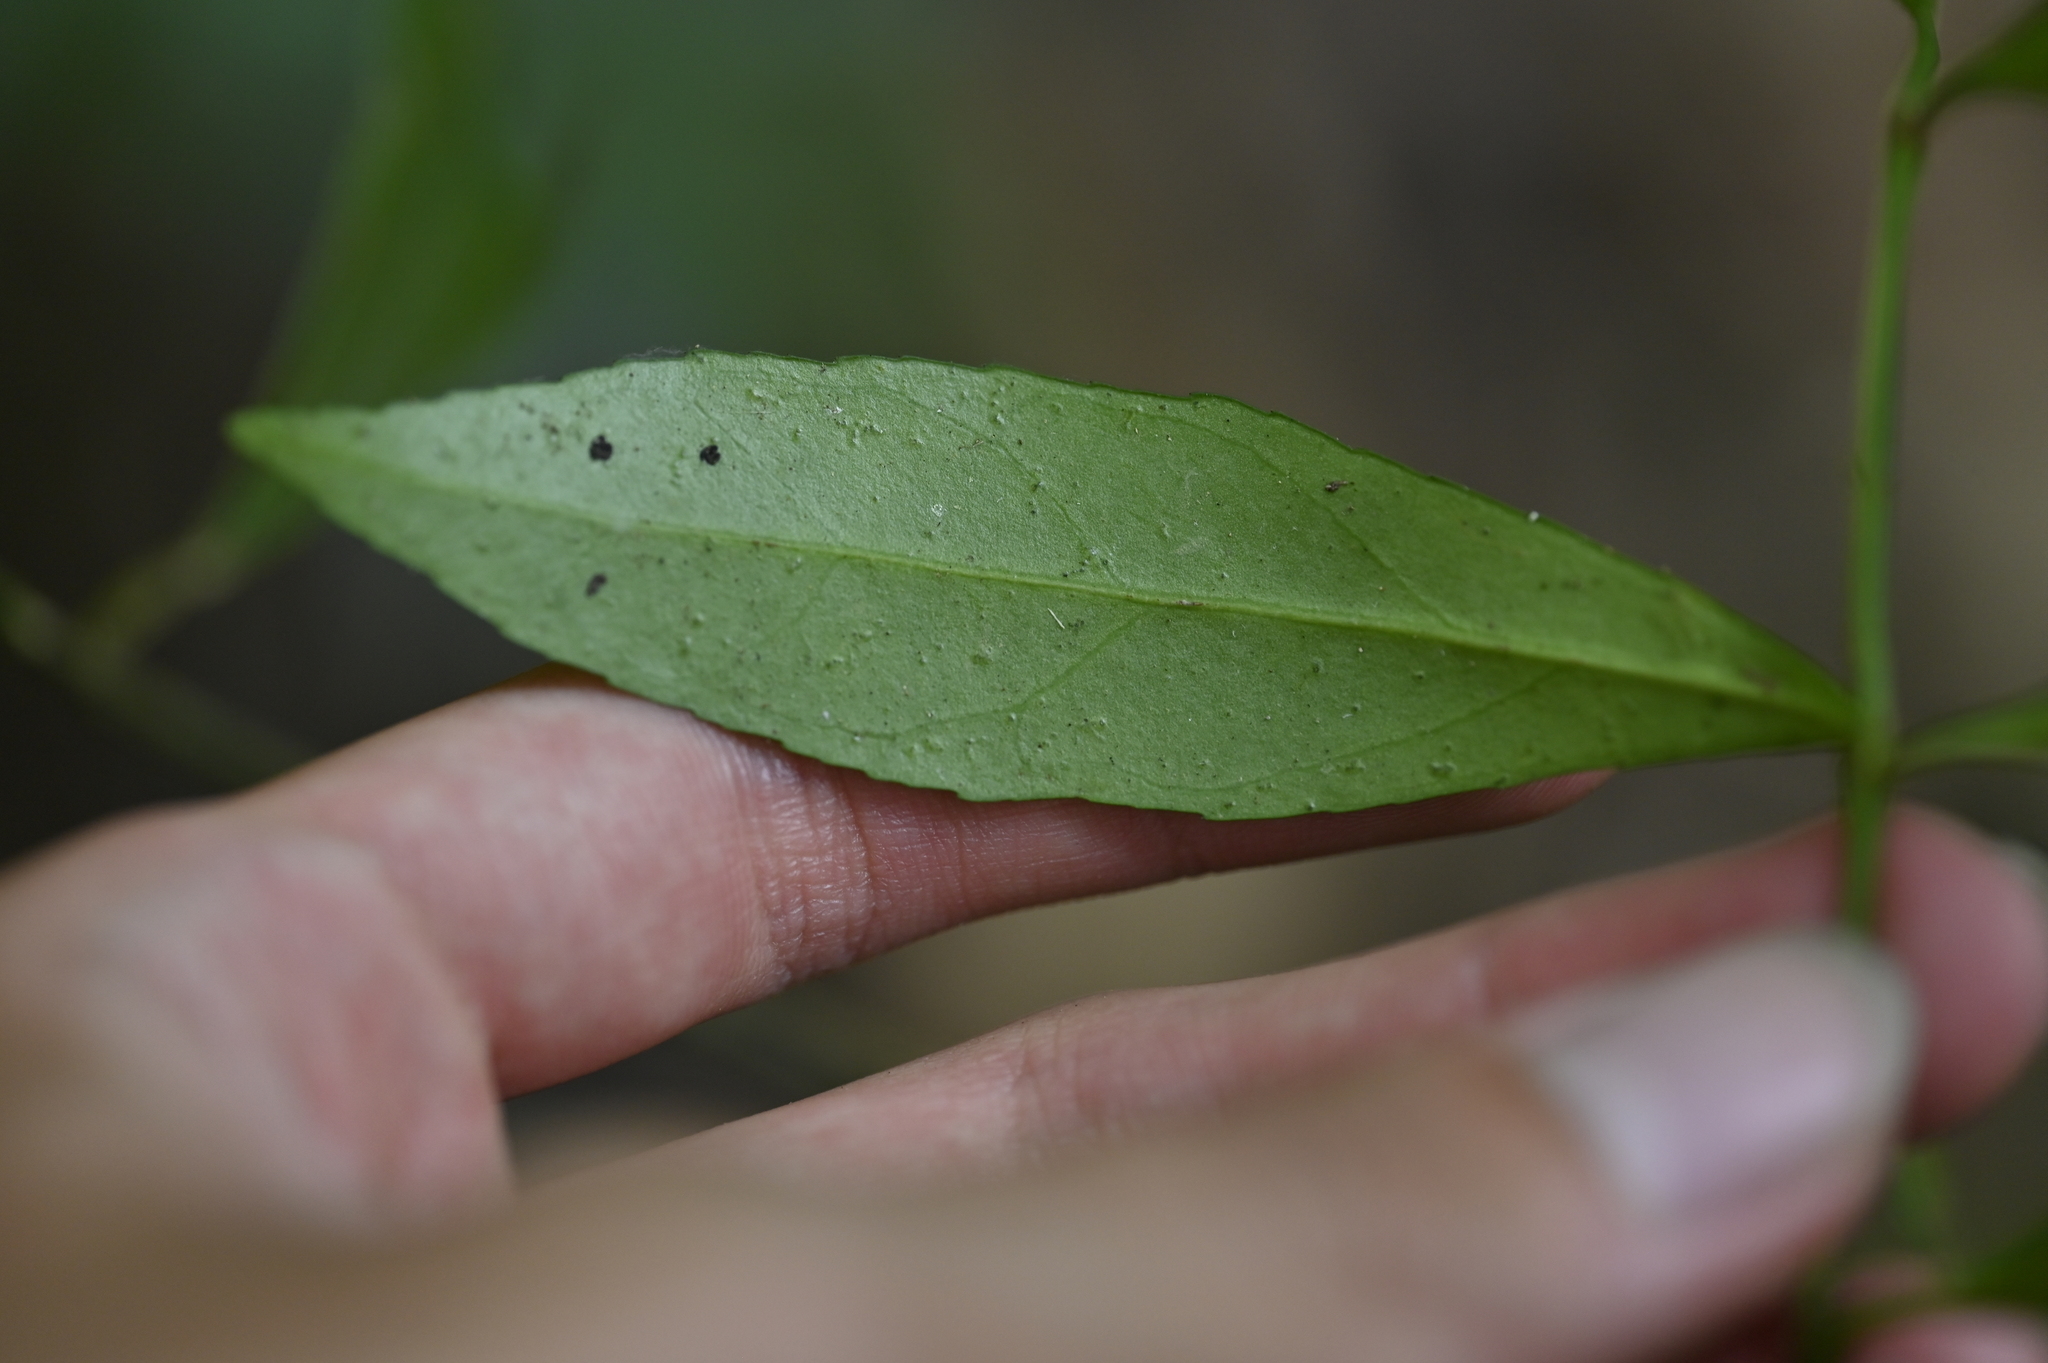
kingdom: Plantae
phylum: Tracheophyta
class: Magnoliopsida
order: Celastrales
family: Celastraceae
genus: Euonymus
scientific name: Euonymus tashiroi
